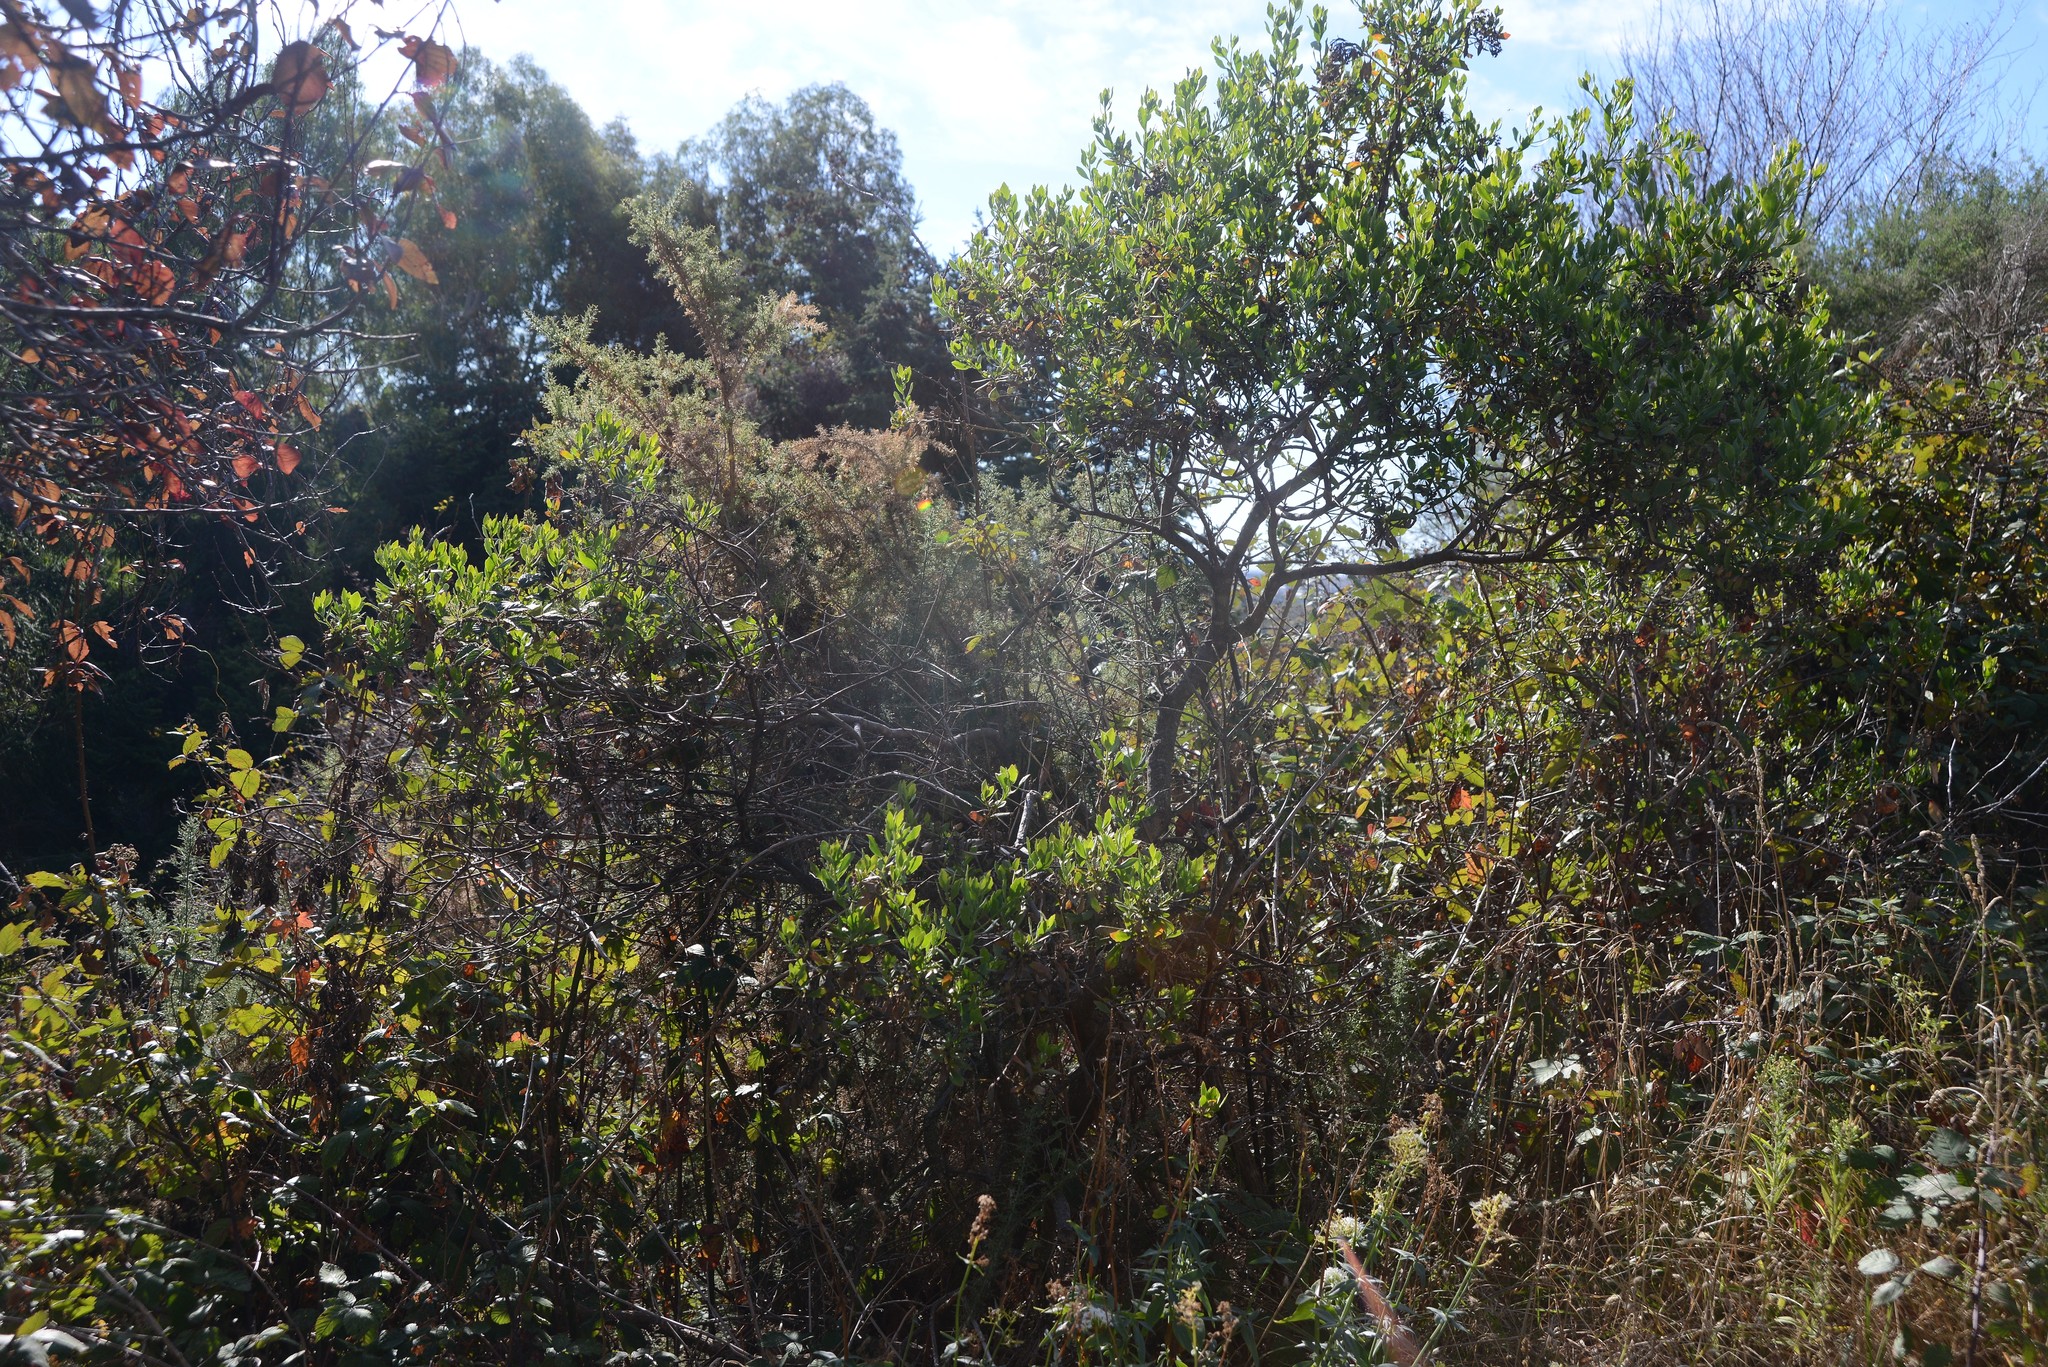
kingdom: Plantae
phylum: Tracheophyta
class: Magnoliopsida
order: Asterales
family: Asteraceae
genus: Osteospermum
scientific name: Osteospermum moniliferum
